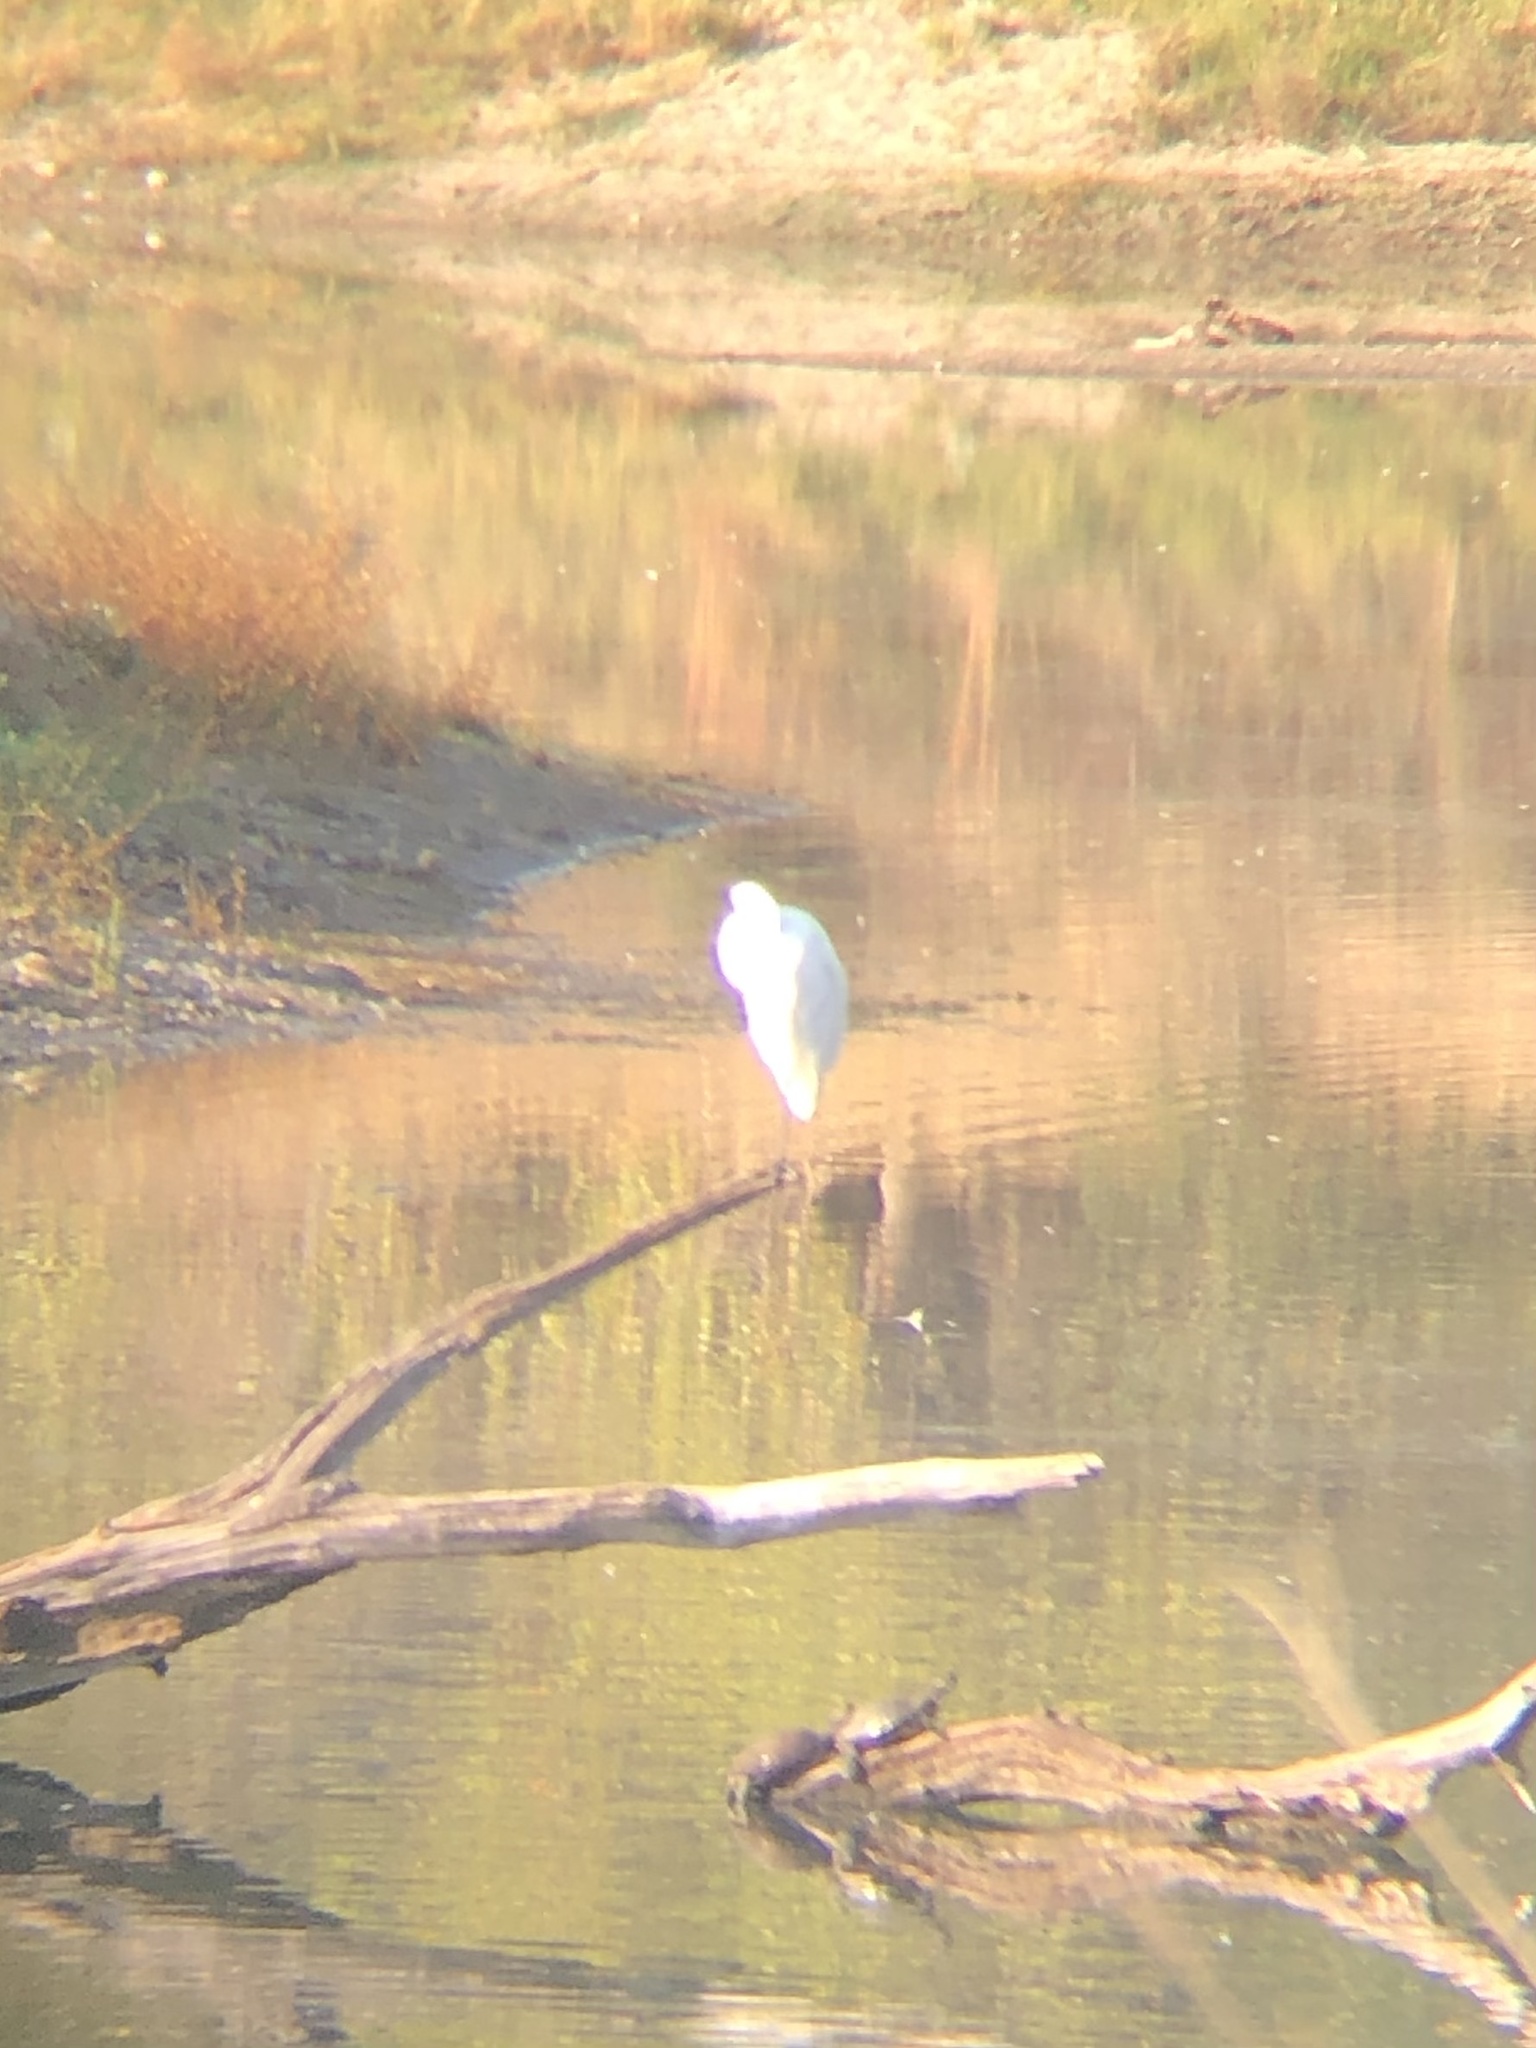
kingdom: Animalia
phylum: Chordata
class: Aves
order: Pelecaniformes
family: Ardeidae
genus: Ardea
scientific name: Ardea alba
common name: Great egret
